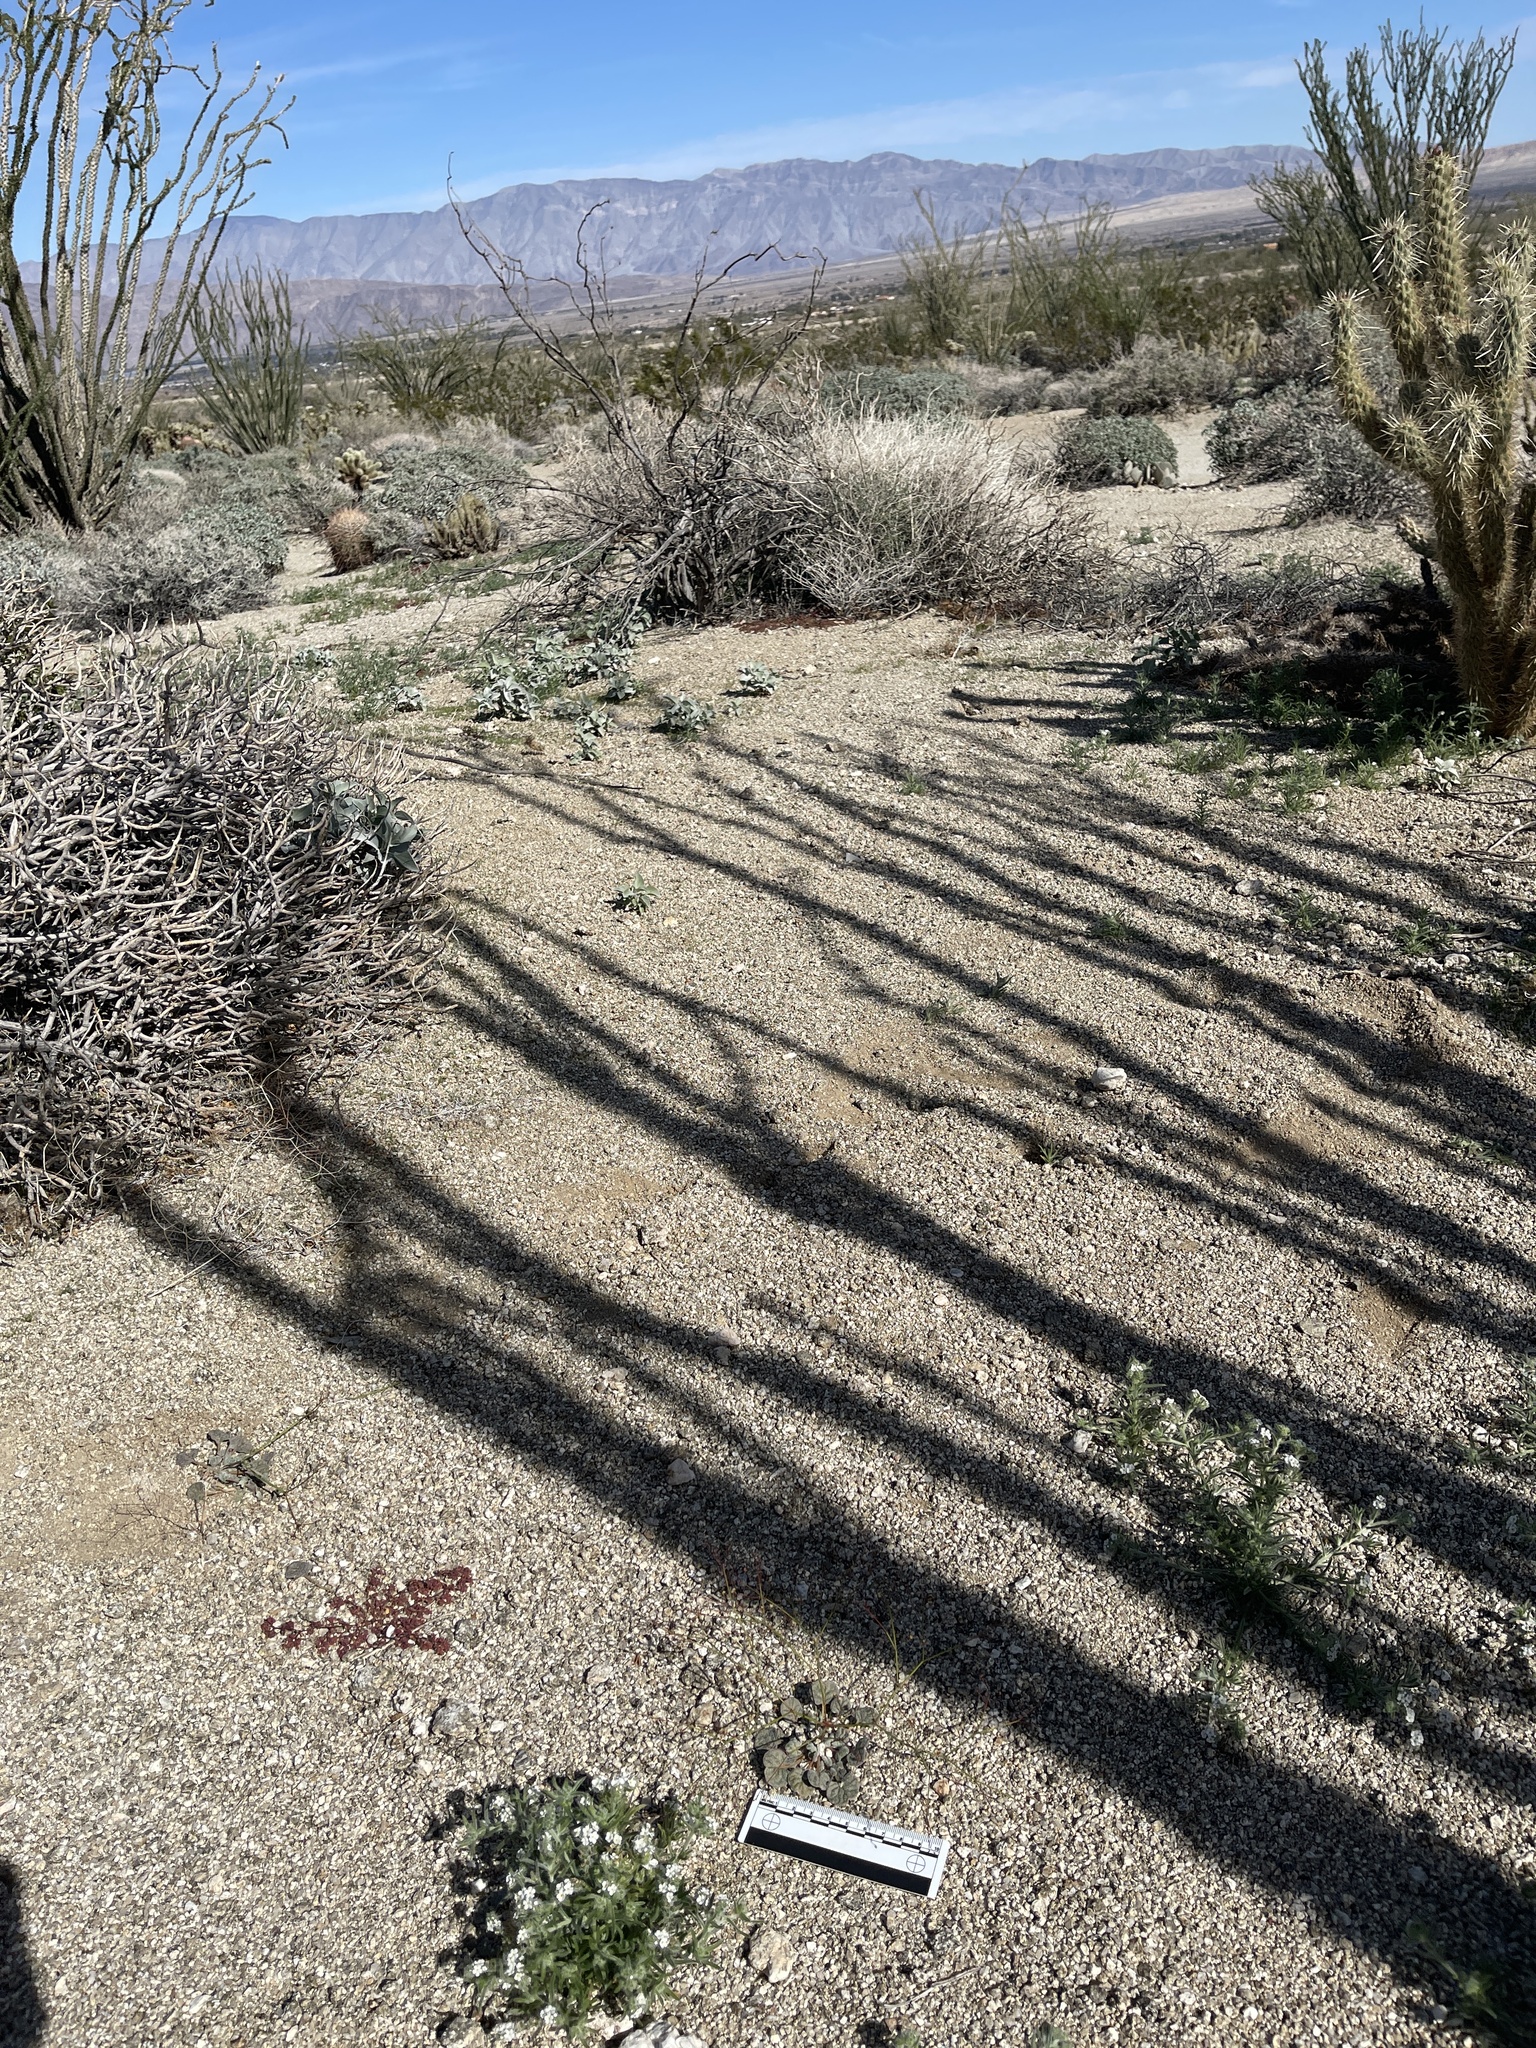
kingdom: Plantae
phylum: Tracheophyta
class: Magnoliopsida
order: Caryophyllales
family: Polygonaceae
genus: Eriogonum
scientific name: Eriogonum thomasii
